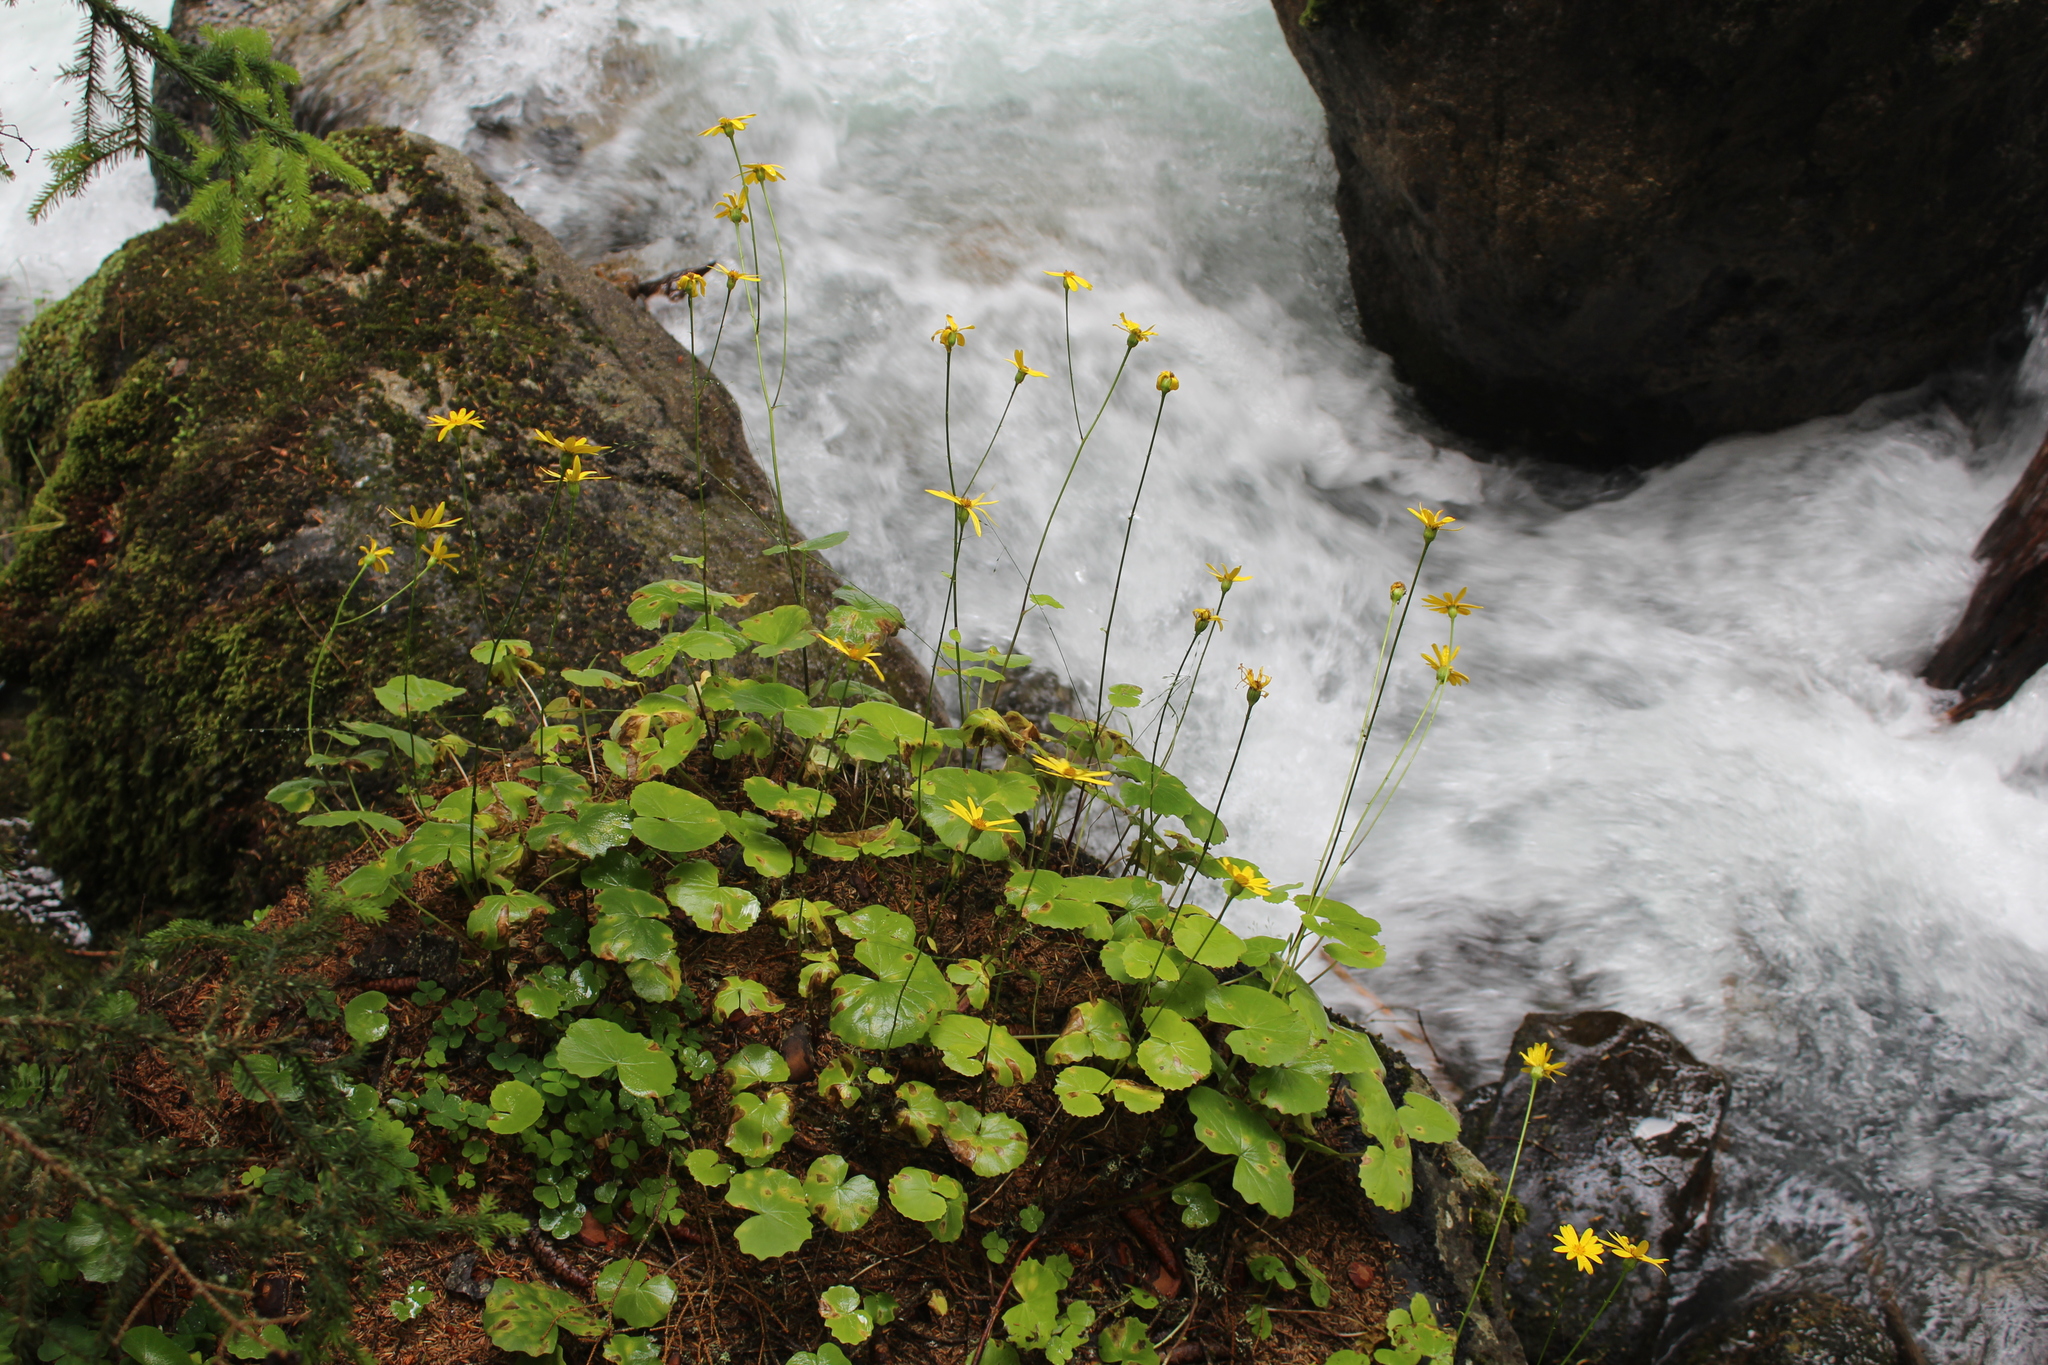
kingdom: Plantae
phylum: Tracheophyta
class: Magnoliopsida
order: Asterales
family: Asteraceae
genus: Dolichorrhiza
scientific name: Dolichorrhiza renifolia
